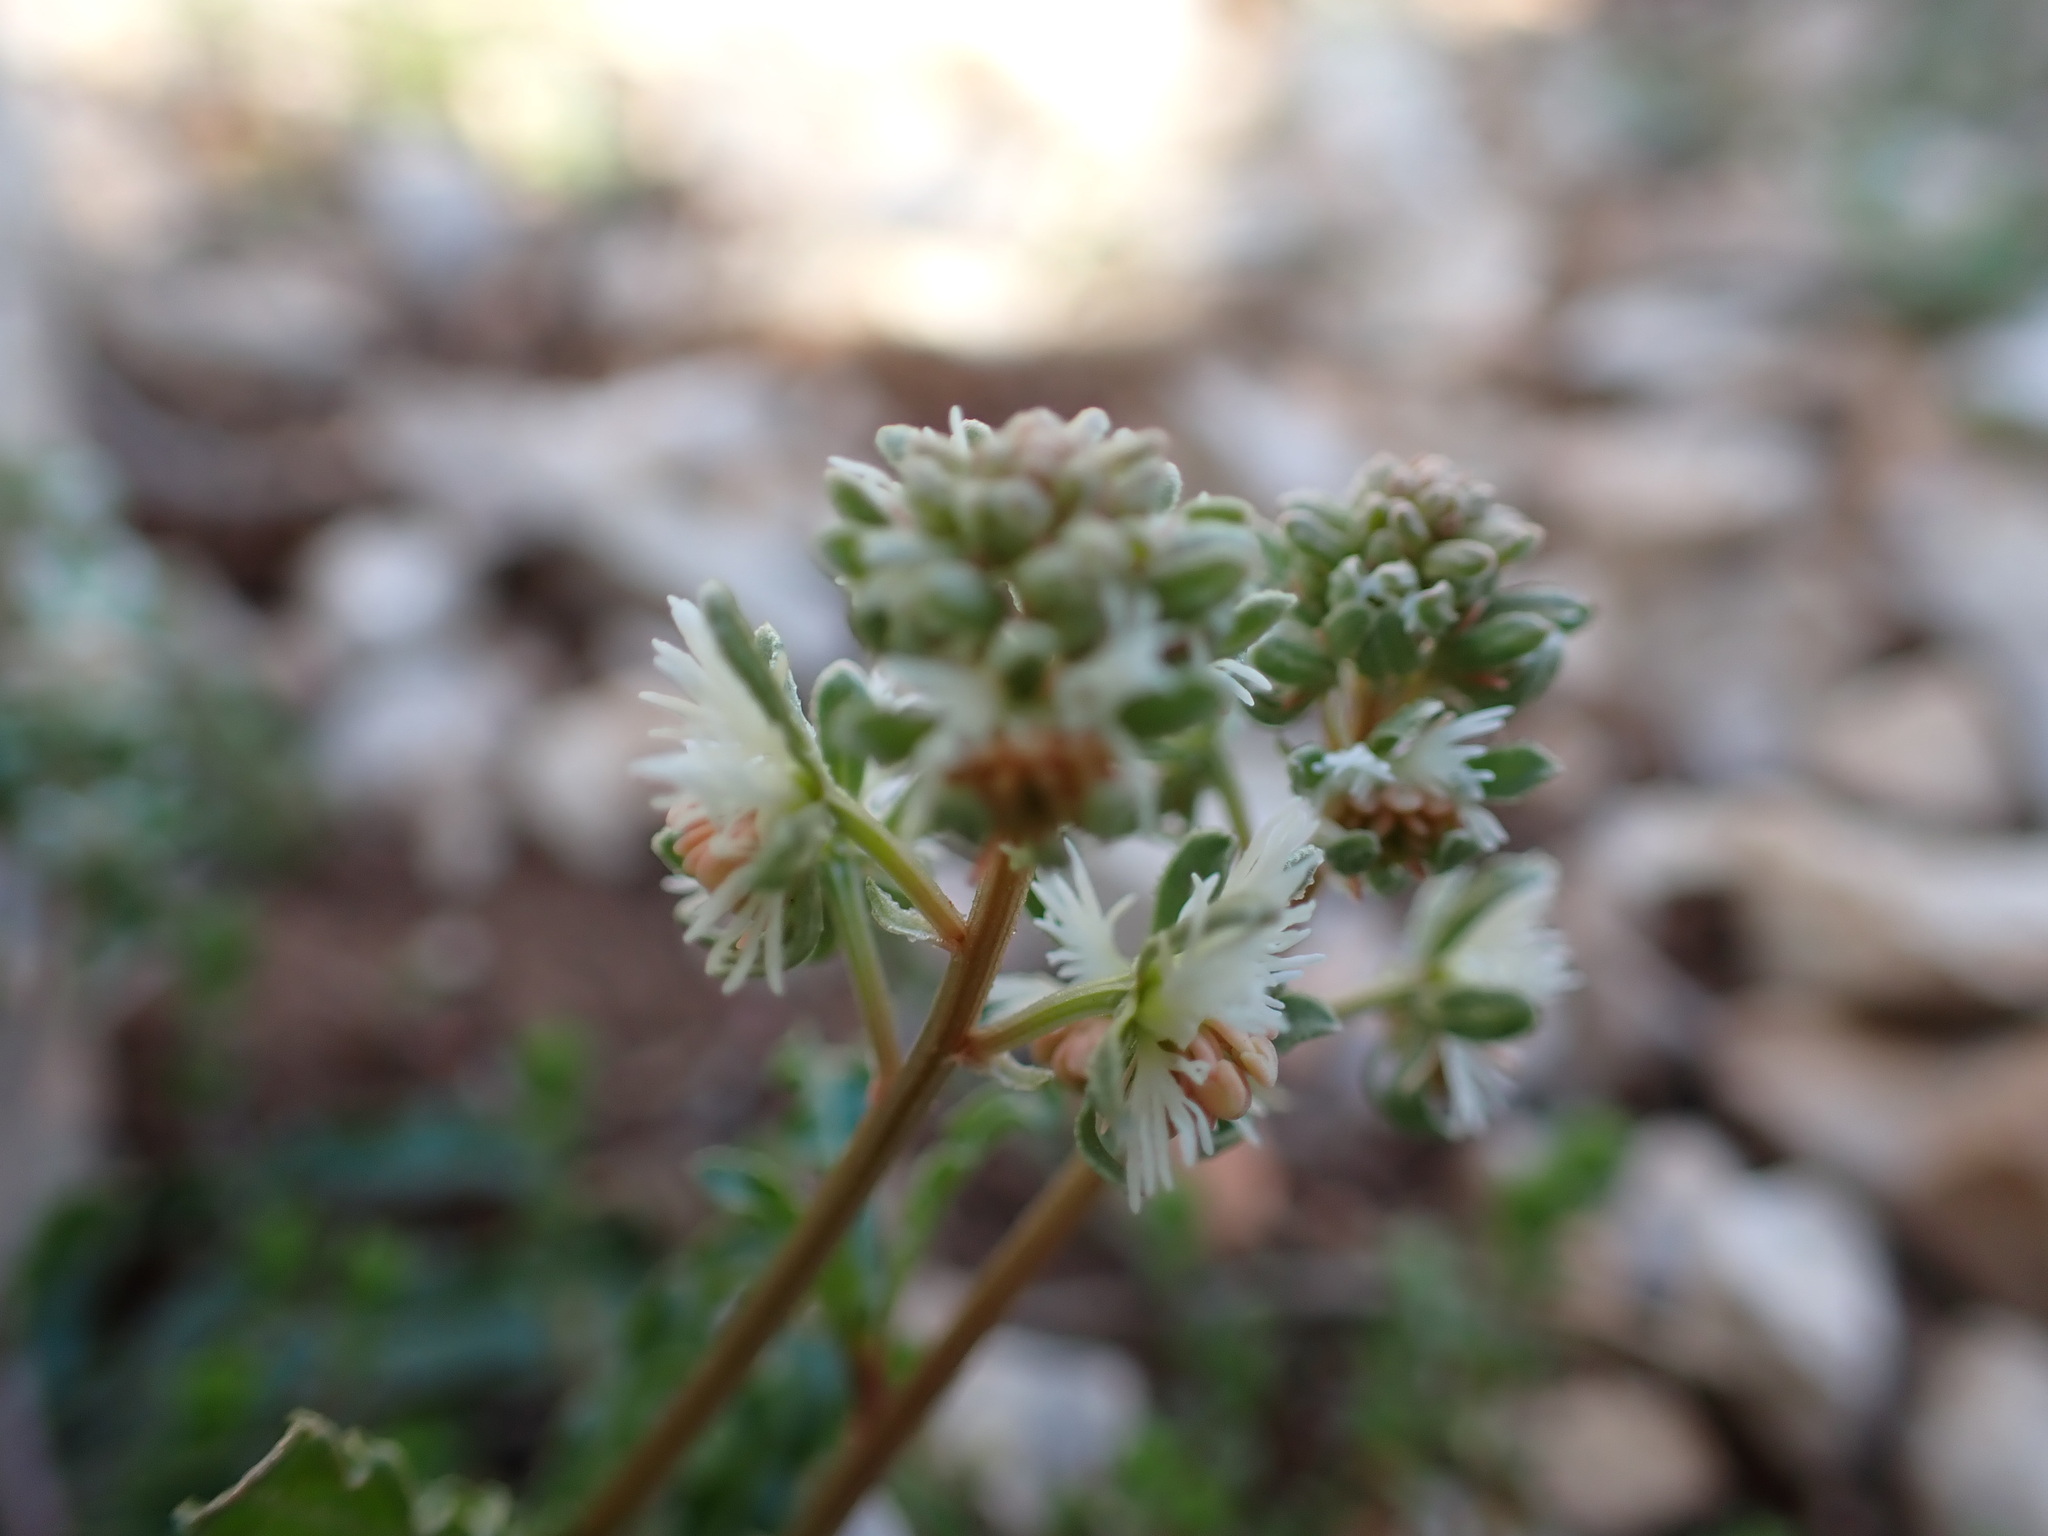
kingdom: Plantae
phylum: Tracheophyta
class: Magnoliopsida
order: Brassicales
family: Resedaceae
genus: Reseda
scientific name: Reseda phyteuma
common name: Corn mignonette
